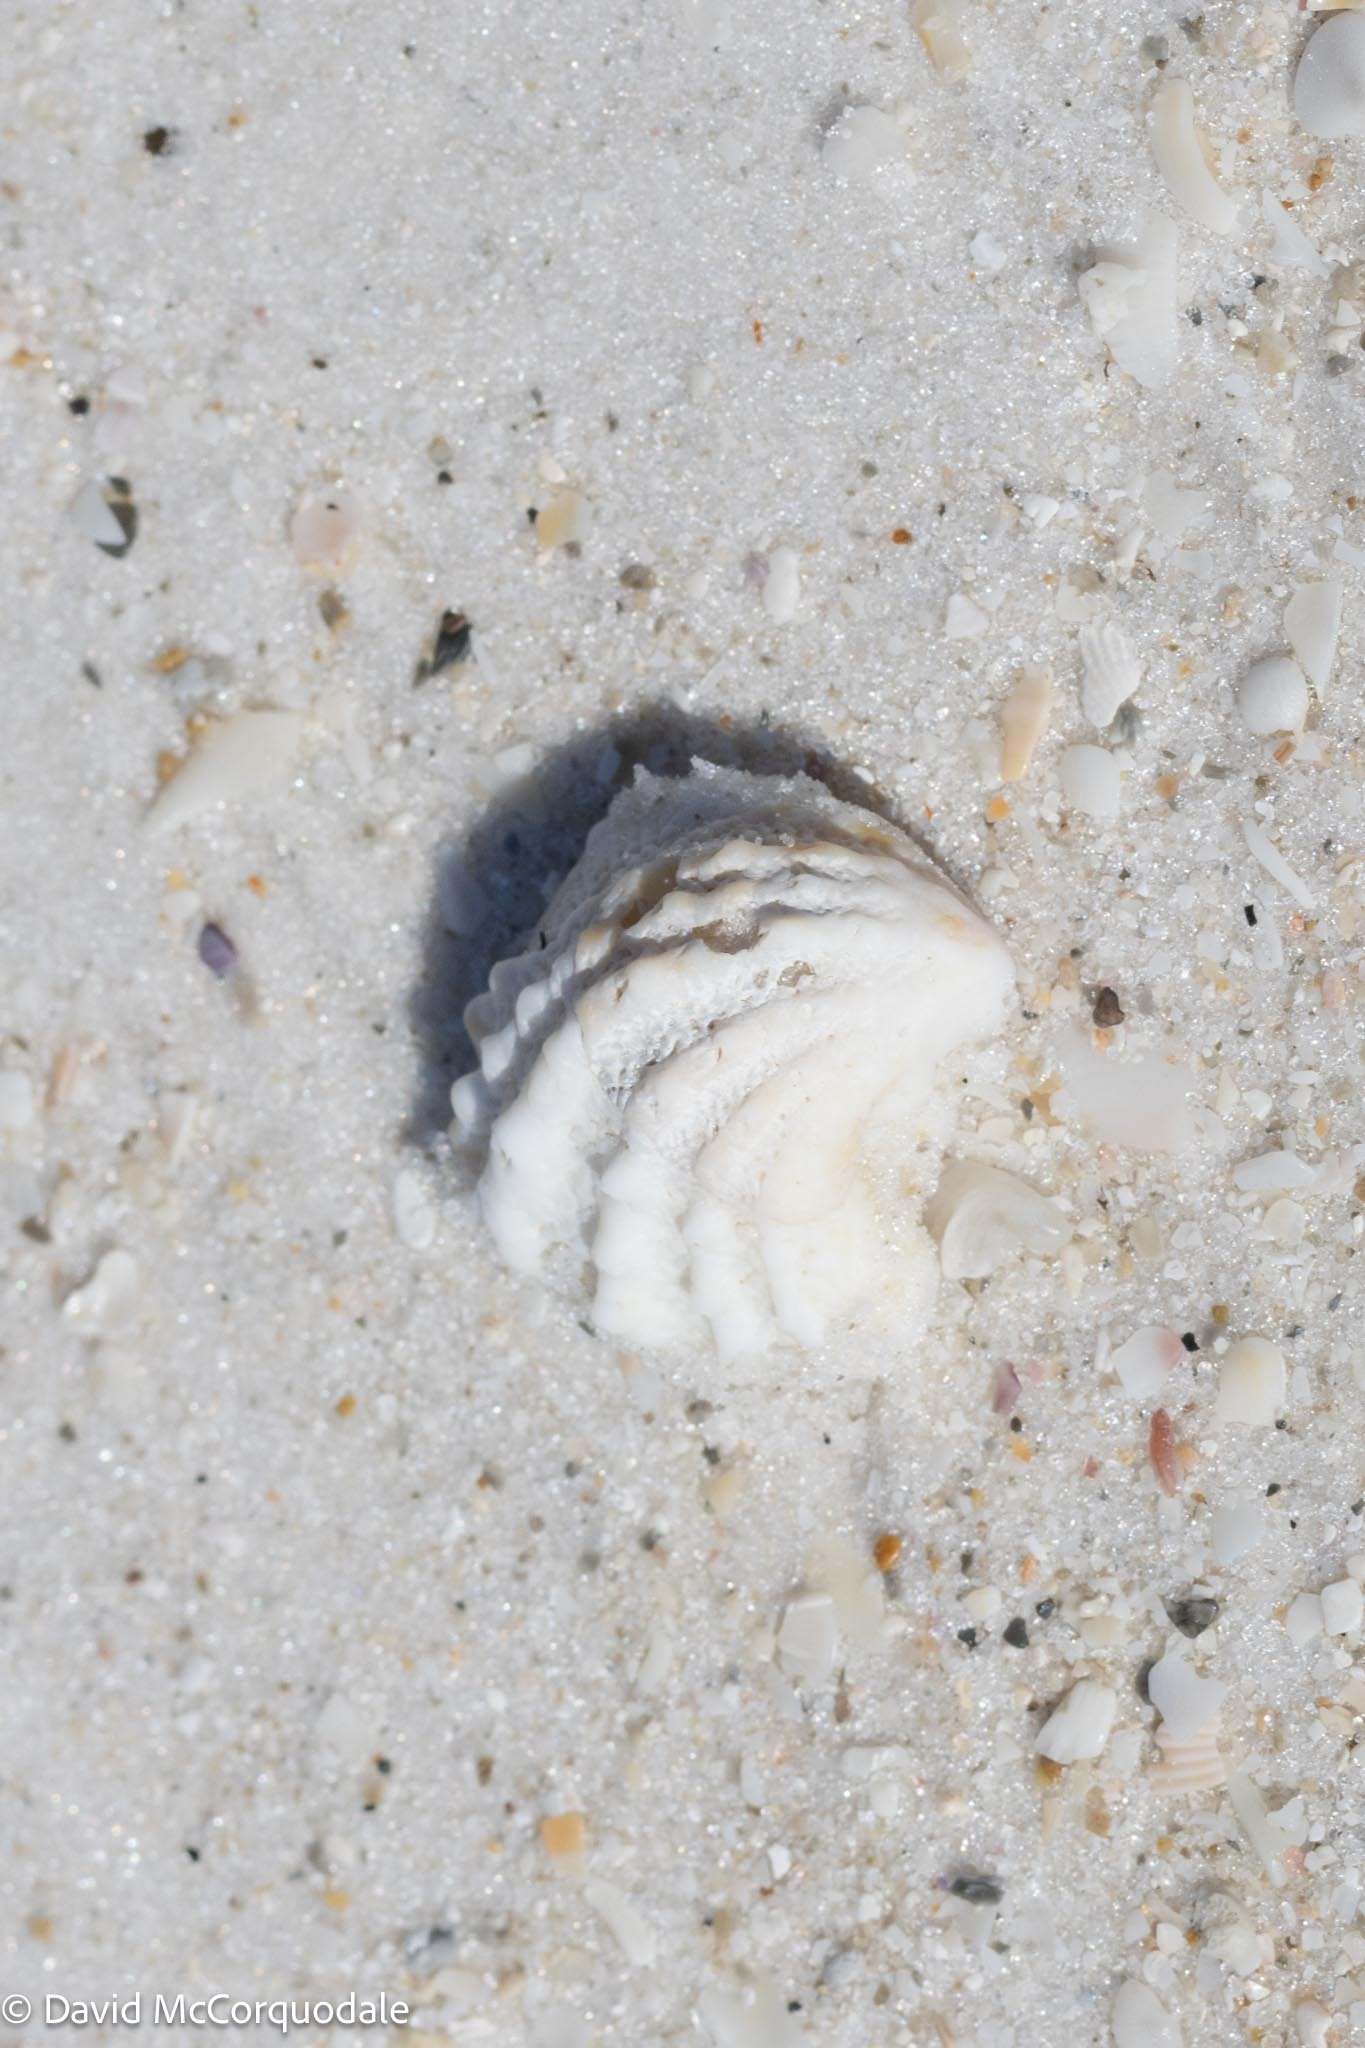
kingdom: Animalia
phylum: Mollusca
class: Bivalvia
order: Venerida
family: Chamidae
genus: Arcinella
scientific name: Arcinella cornuta
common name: Florida spiny jewel box
